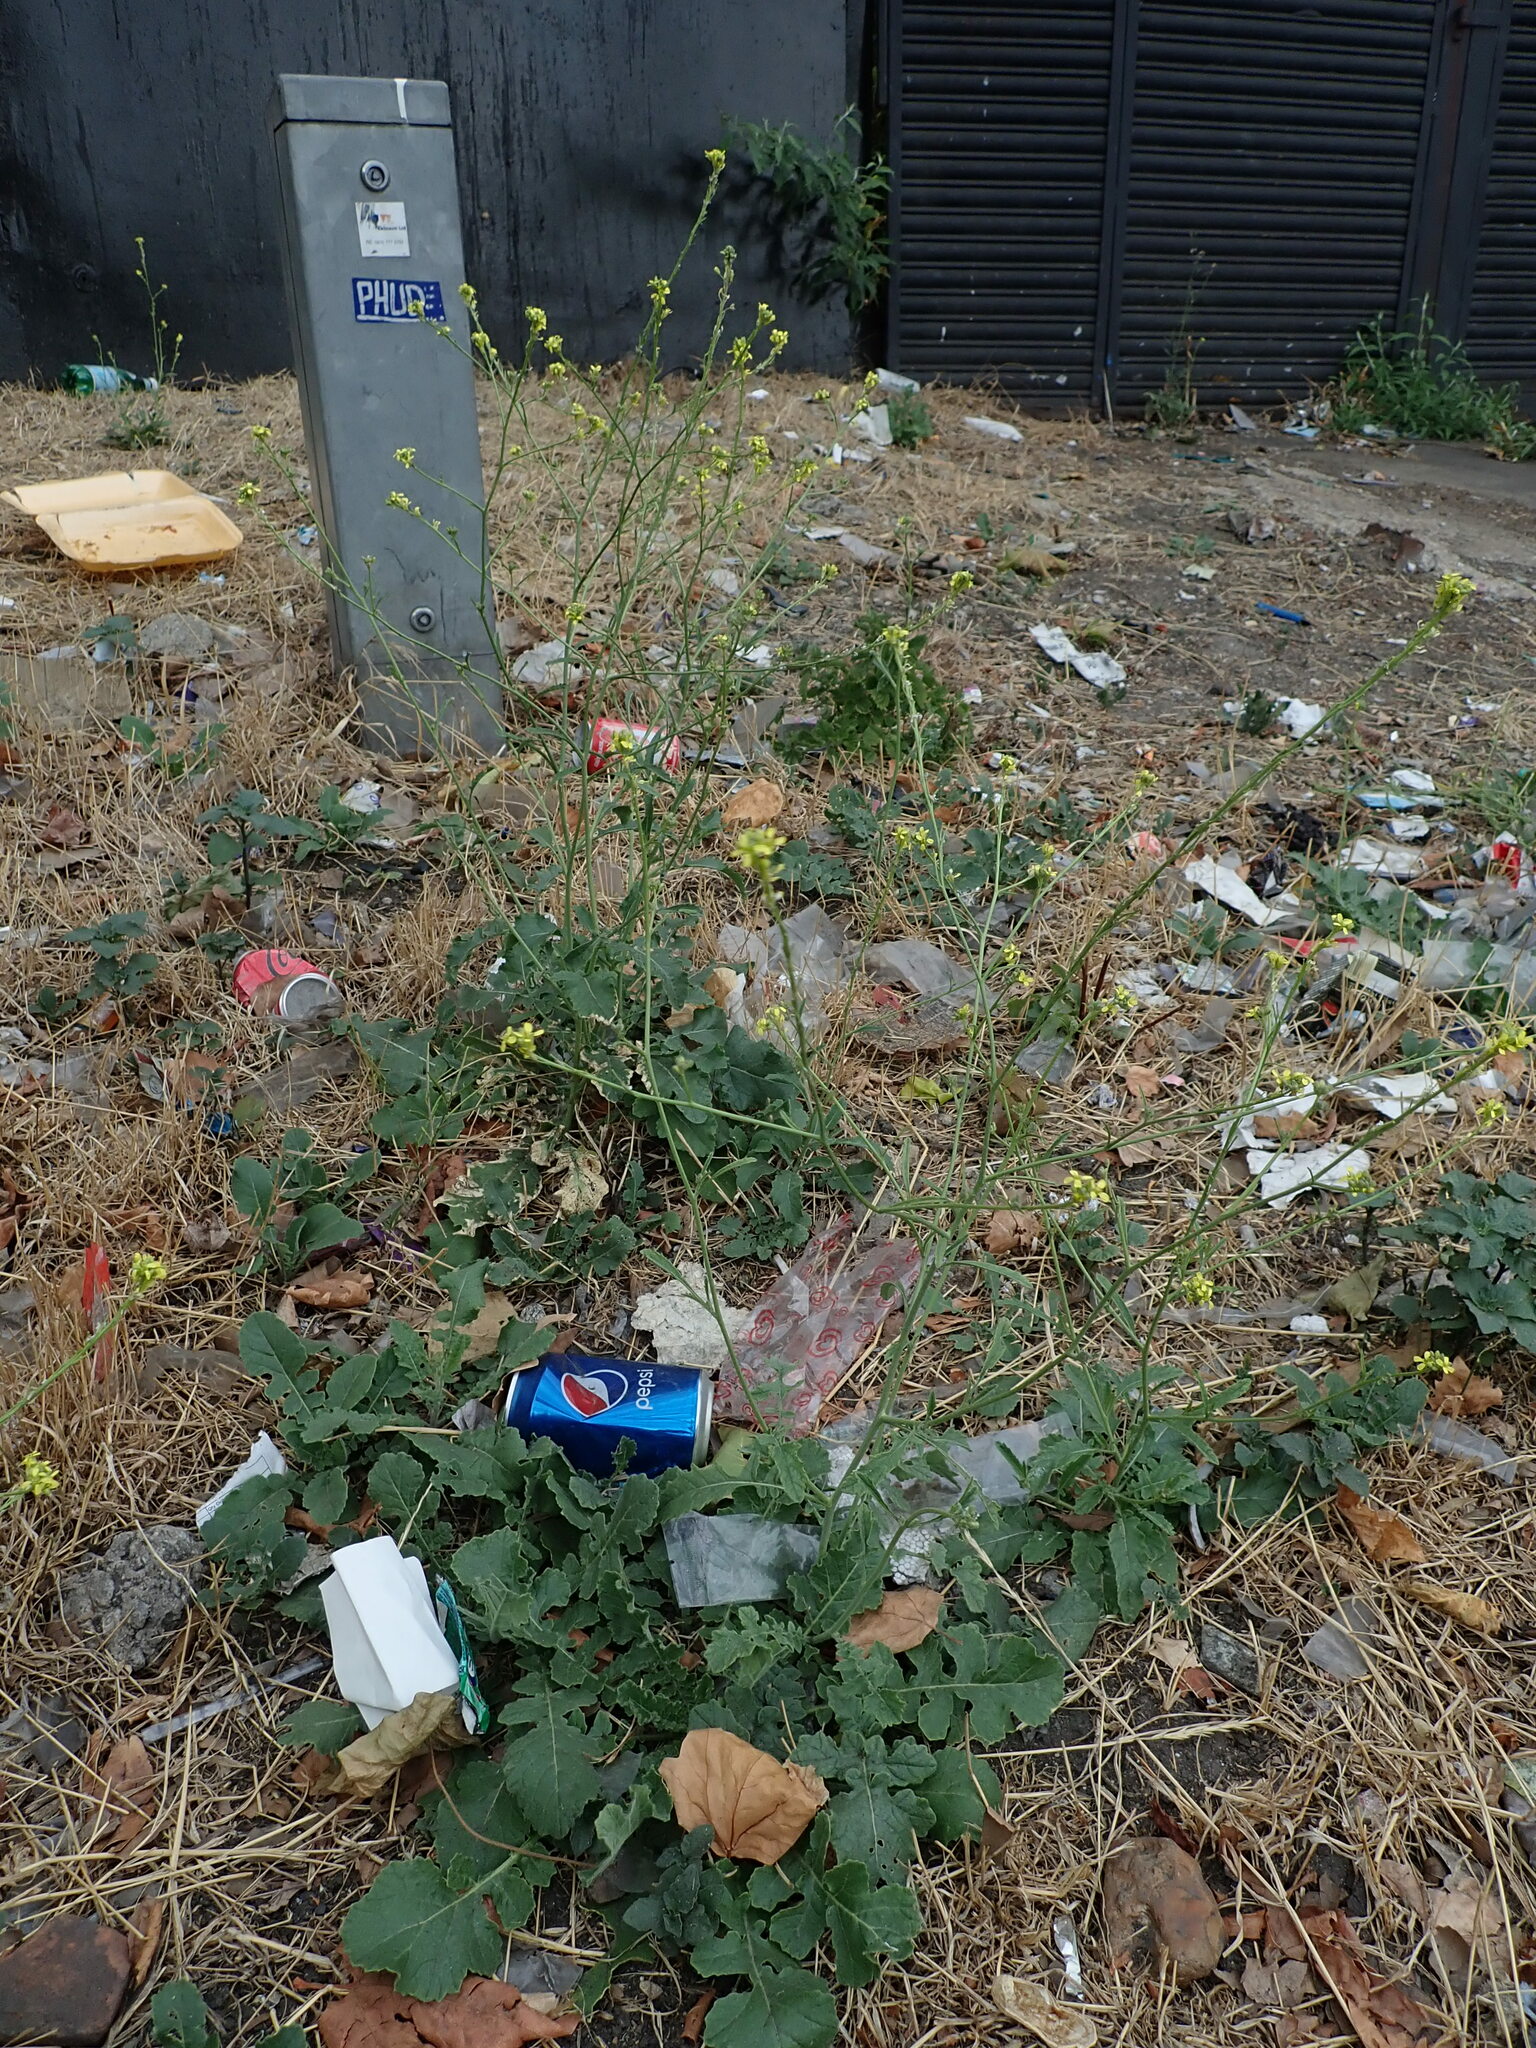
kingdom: Plantae
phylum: Tracheophyta
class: Magnoliopsida
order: Brassicales
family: Brassicaceae
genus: Hirschfeldia
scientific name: Hirschfeldia incana
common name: Hoary mustard
